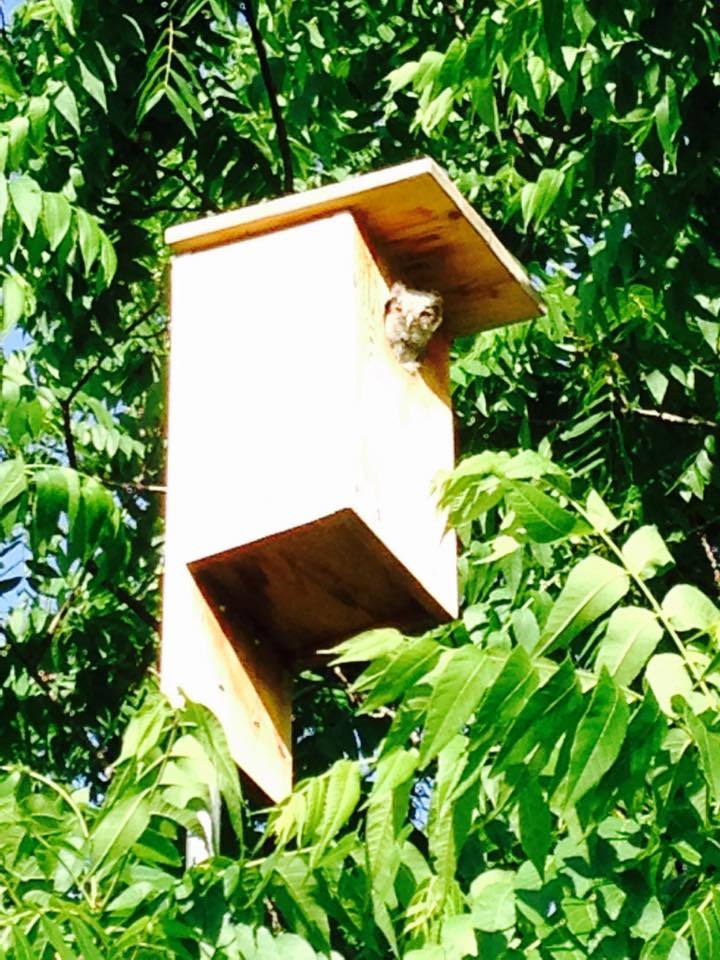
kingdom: Animalia
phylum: Chordata
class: Aves
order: Strigiformes
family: Strigidae
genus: Megascops
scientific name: Megascops asio
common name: Eastern screech-owl
